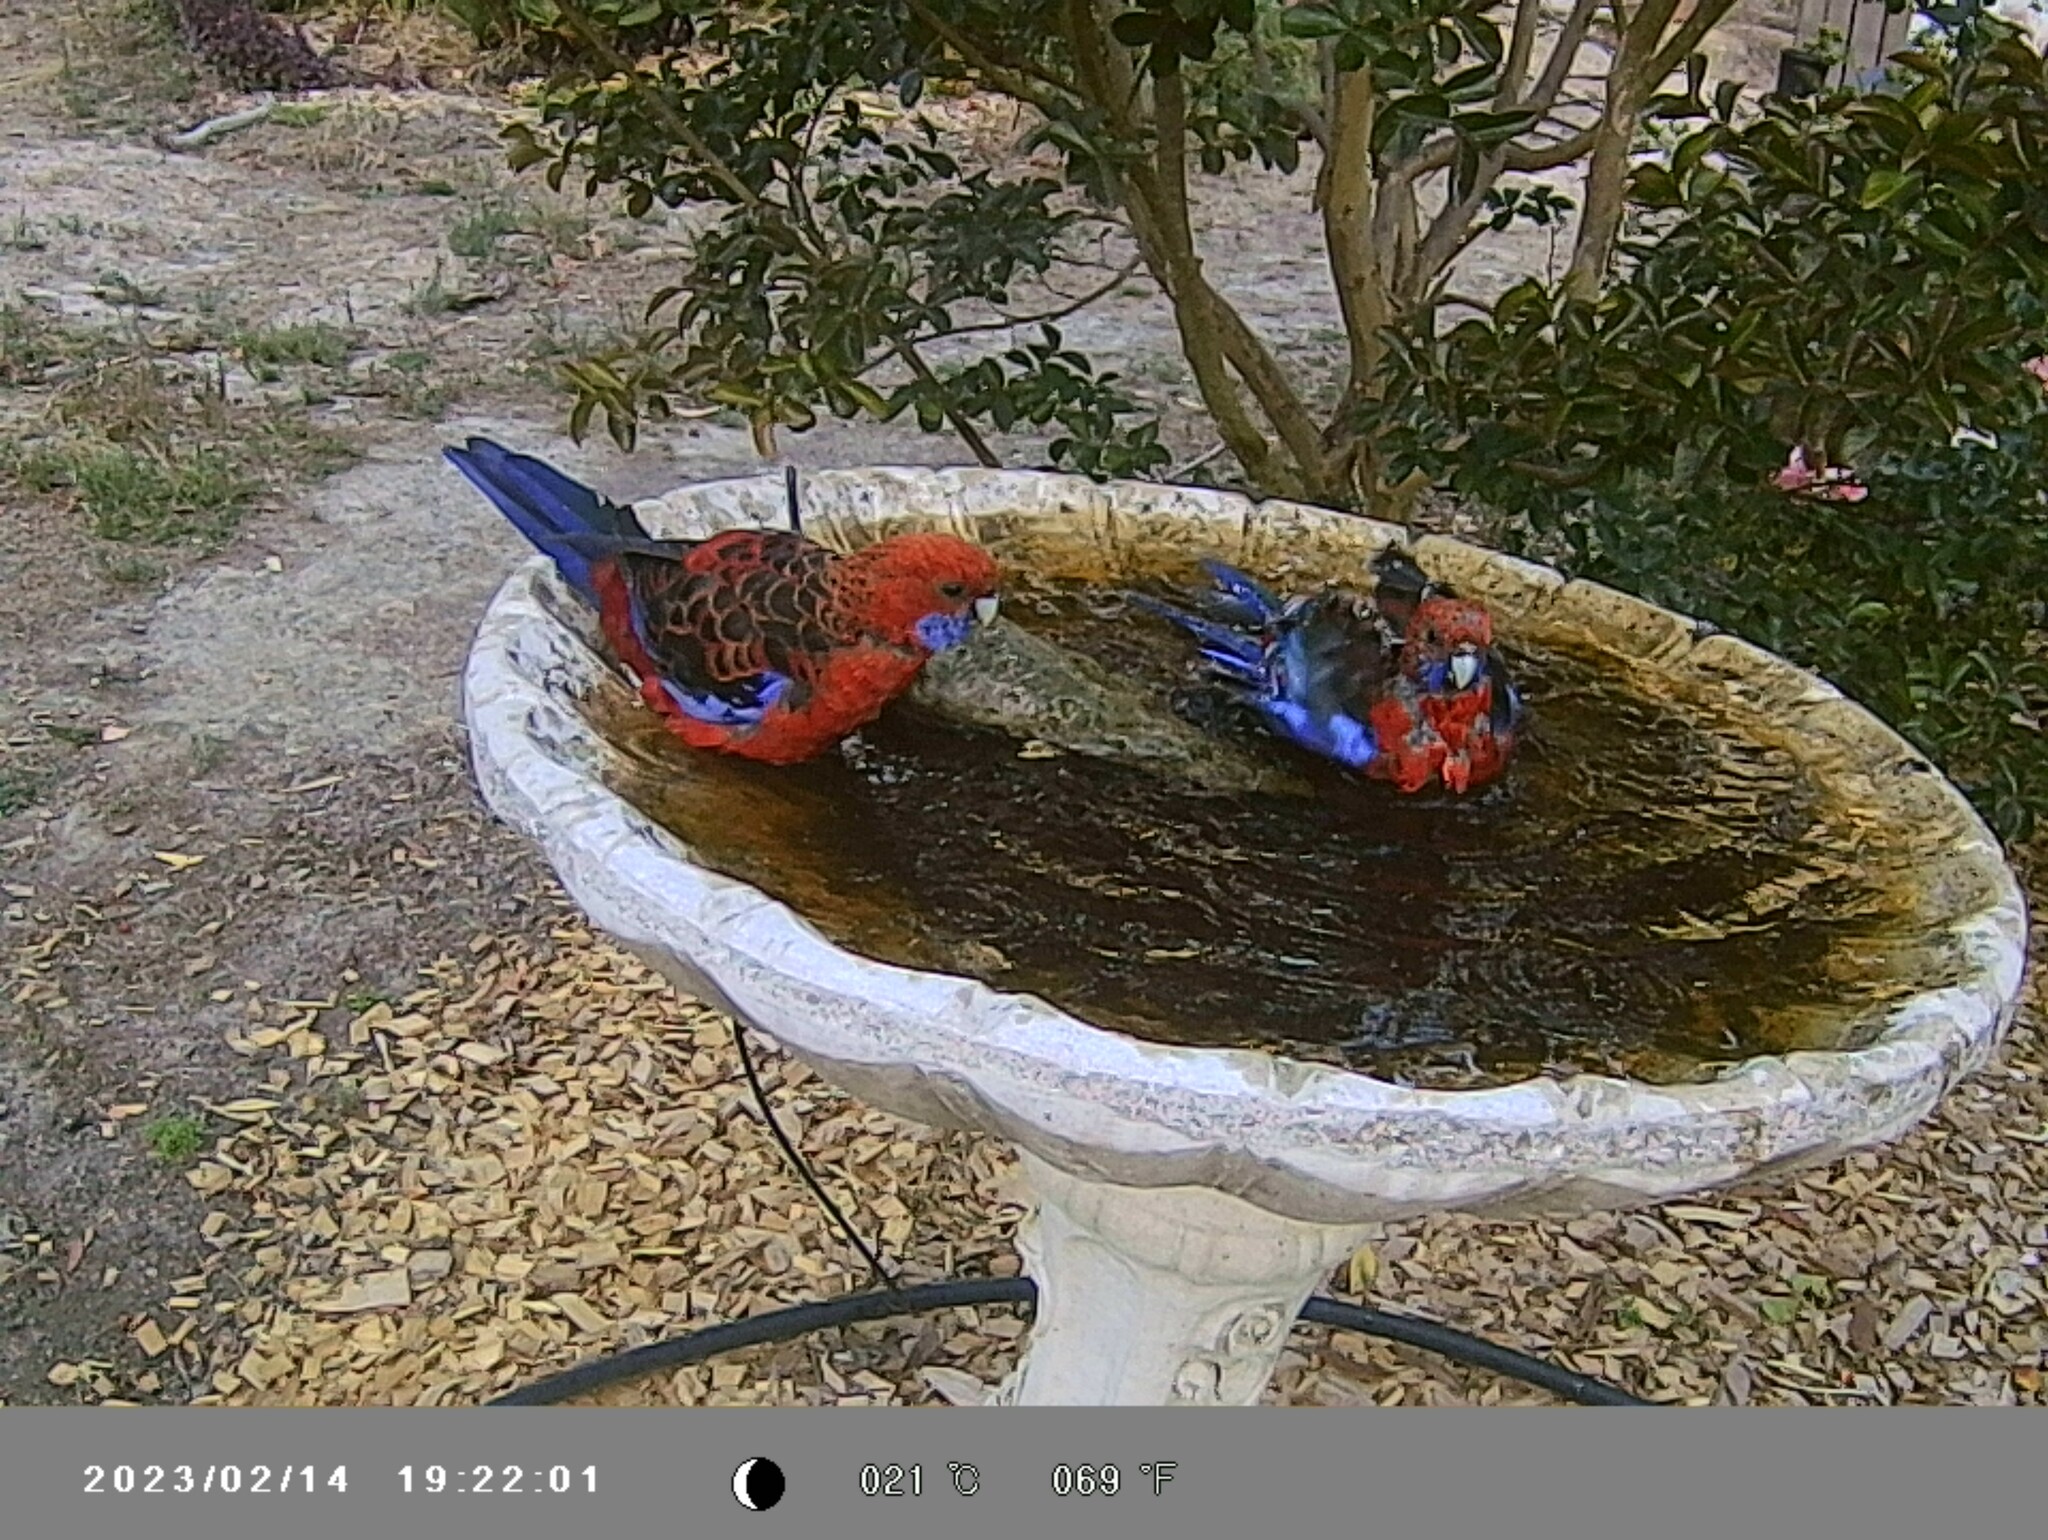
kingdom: Animalia
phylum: Chordata
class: Aves
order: Psittaciformes
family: Psittacidae
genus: Platycercus
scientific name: Platycercus elegans
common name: Crimson rosella
